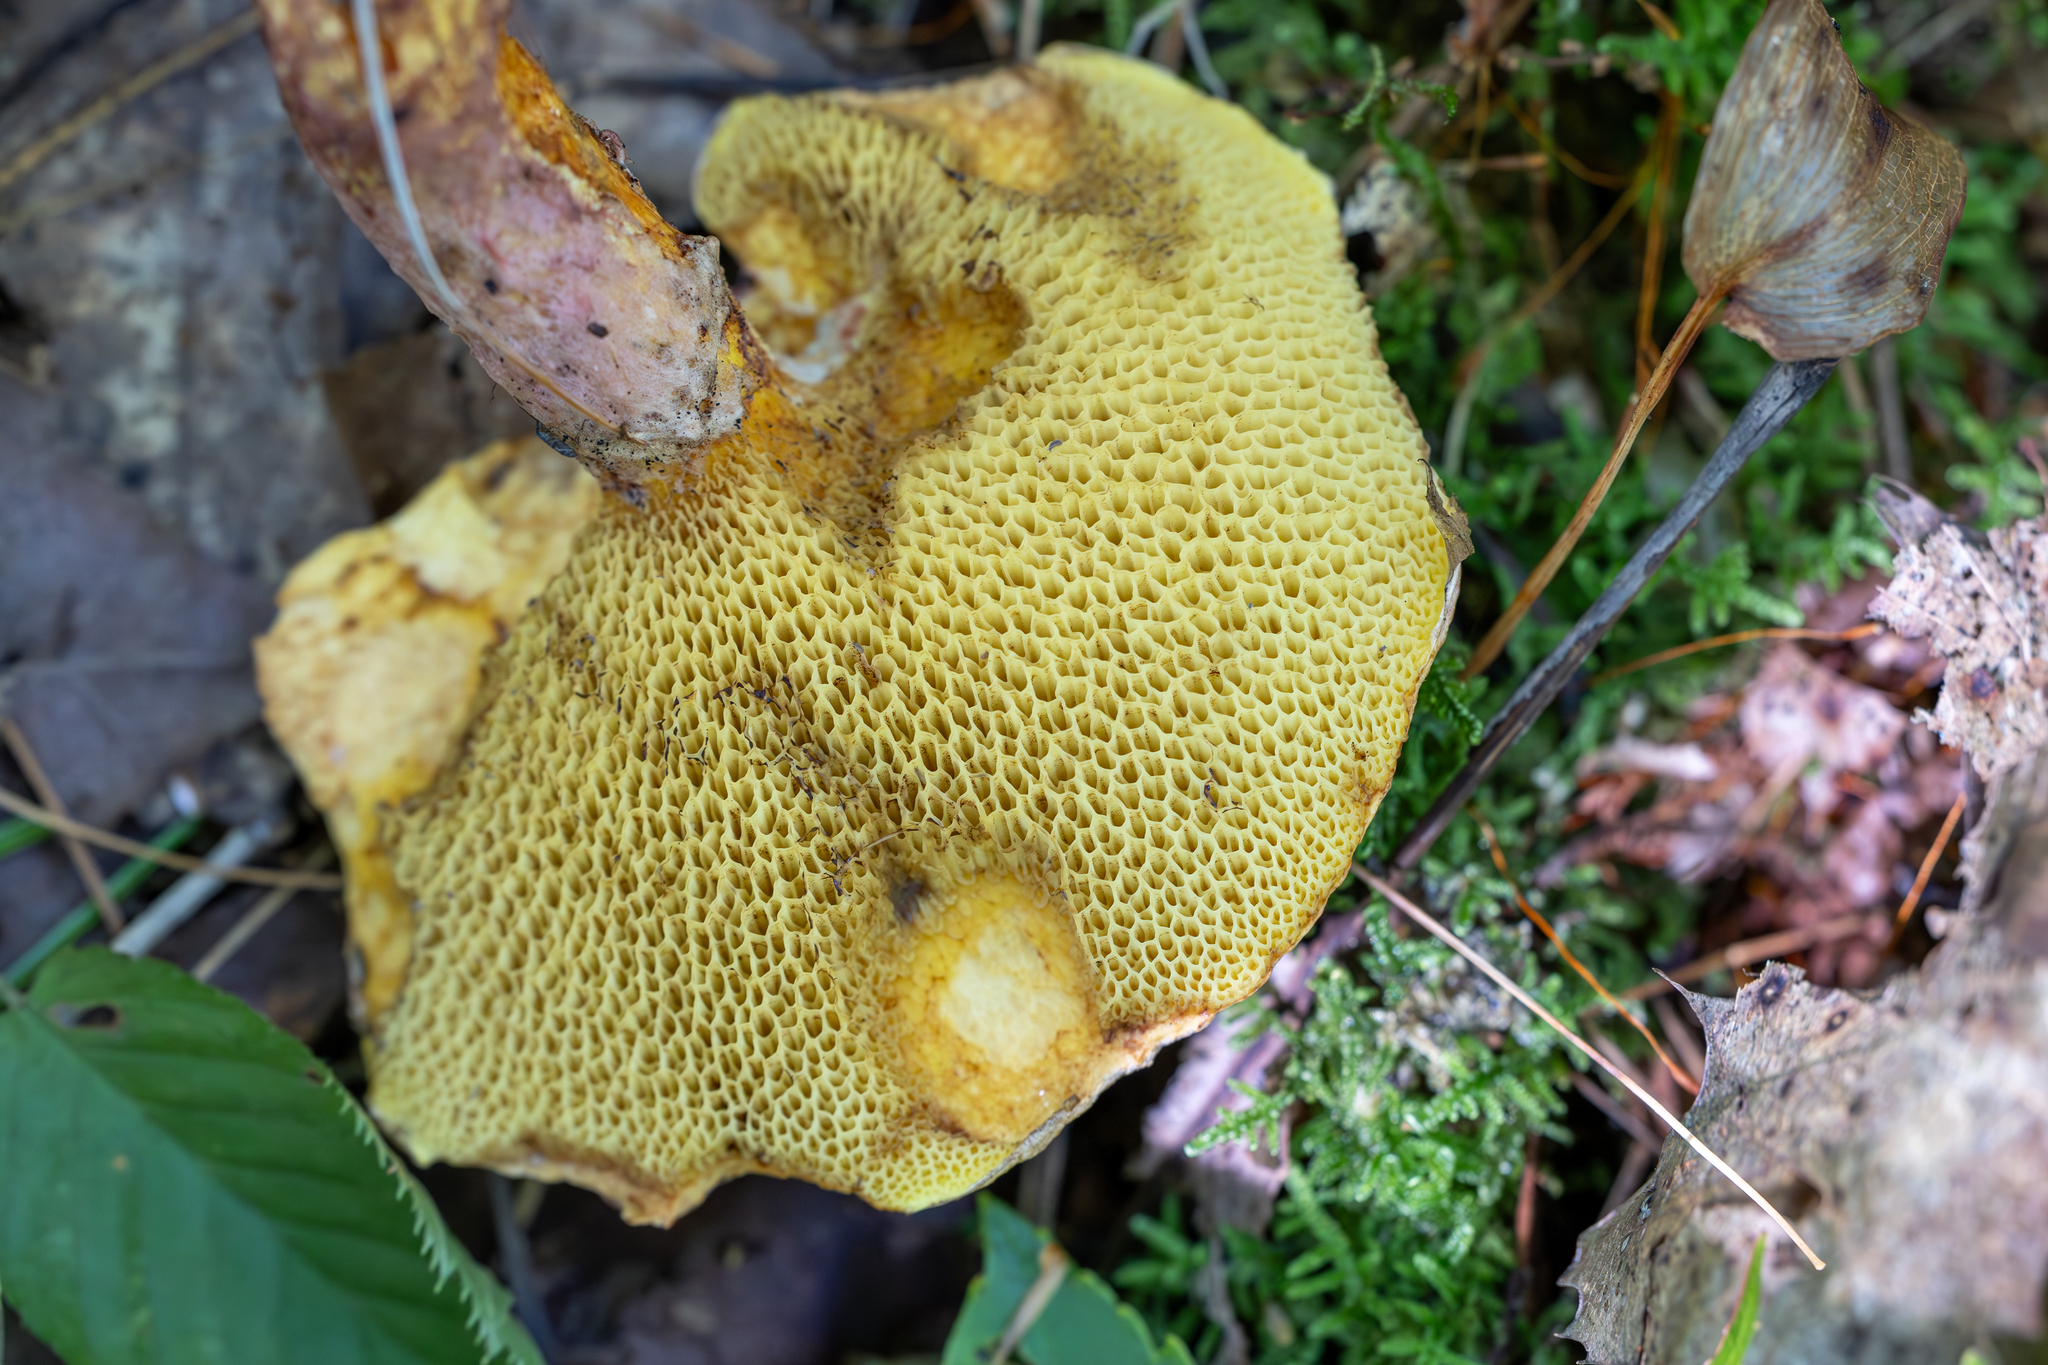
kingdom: Fungi
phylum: Basidiomycota
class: Agaricomycetes
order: Boletales
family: Suillaceae
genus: Suillus
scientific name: Suillus spraguei
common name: Painted suillus
